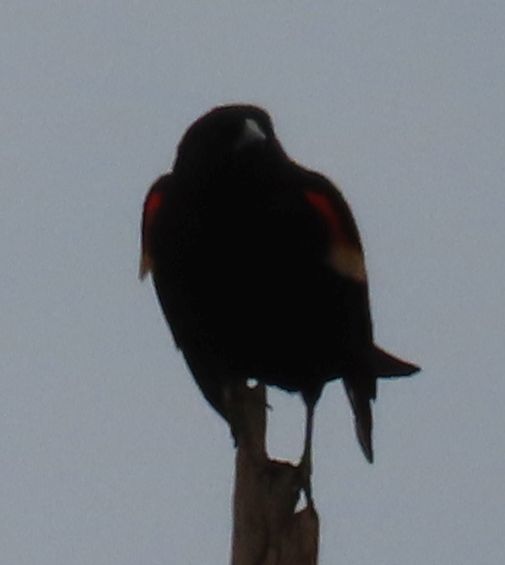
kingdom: Animalia
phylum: Chordata
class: Aves
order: Passeriformes
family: Icteridae
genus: Agelaius
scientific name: Agelaius phoeniceus
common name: Red-winged blackbird
